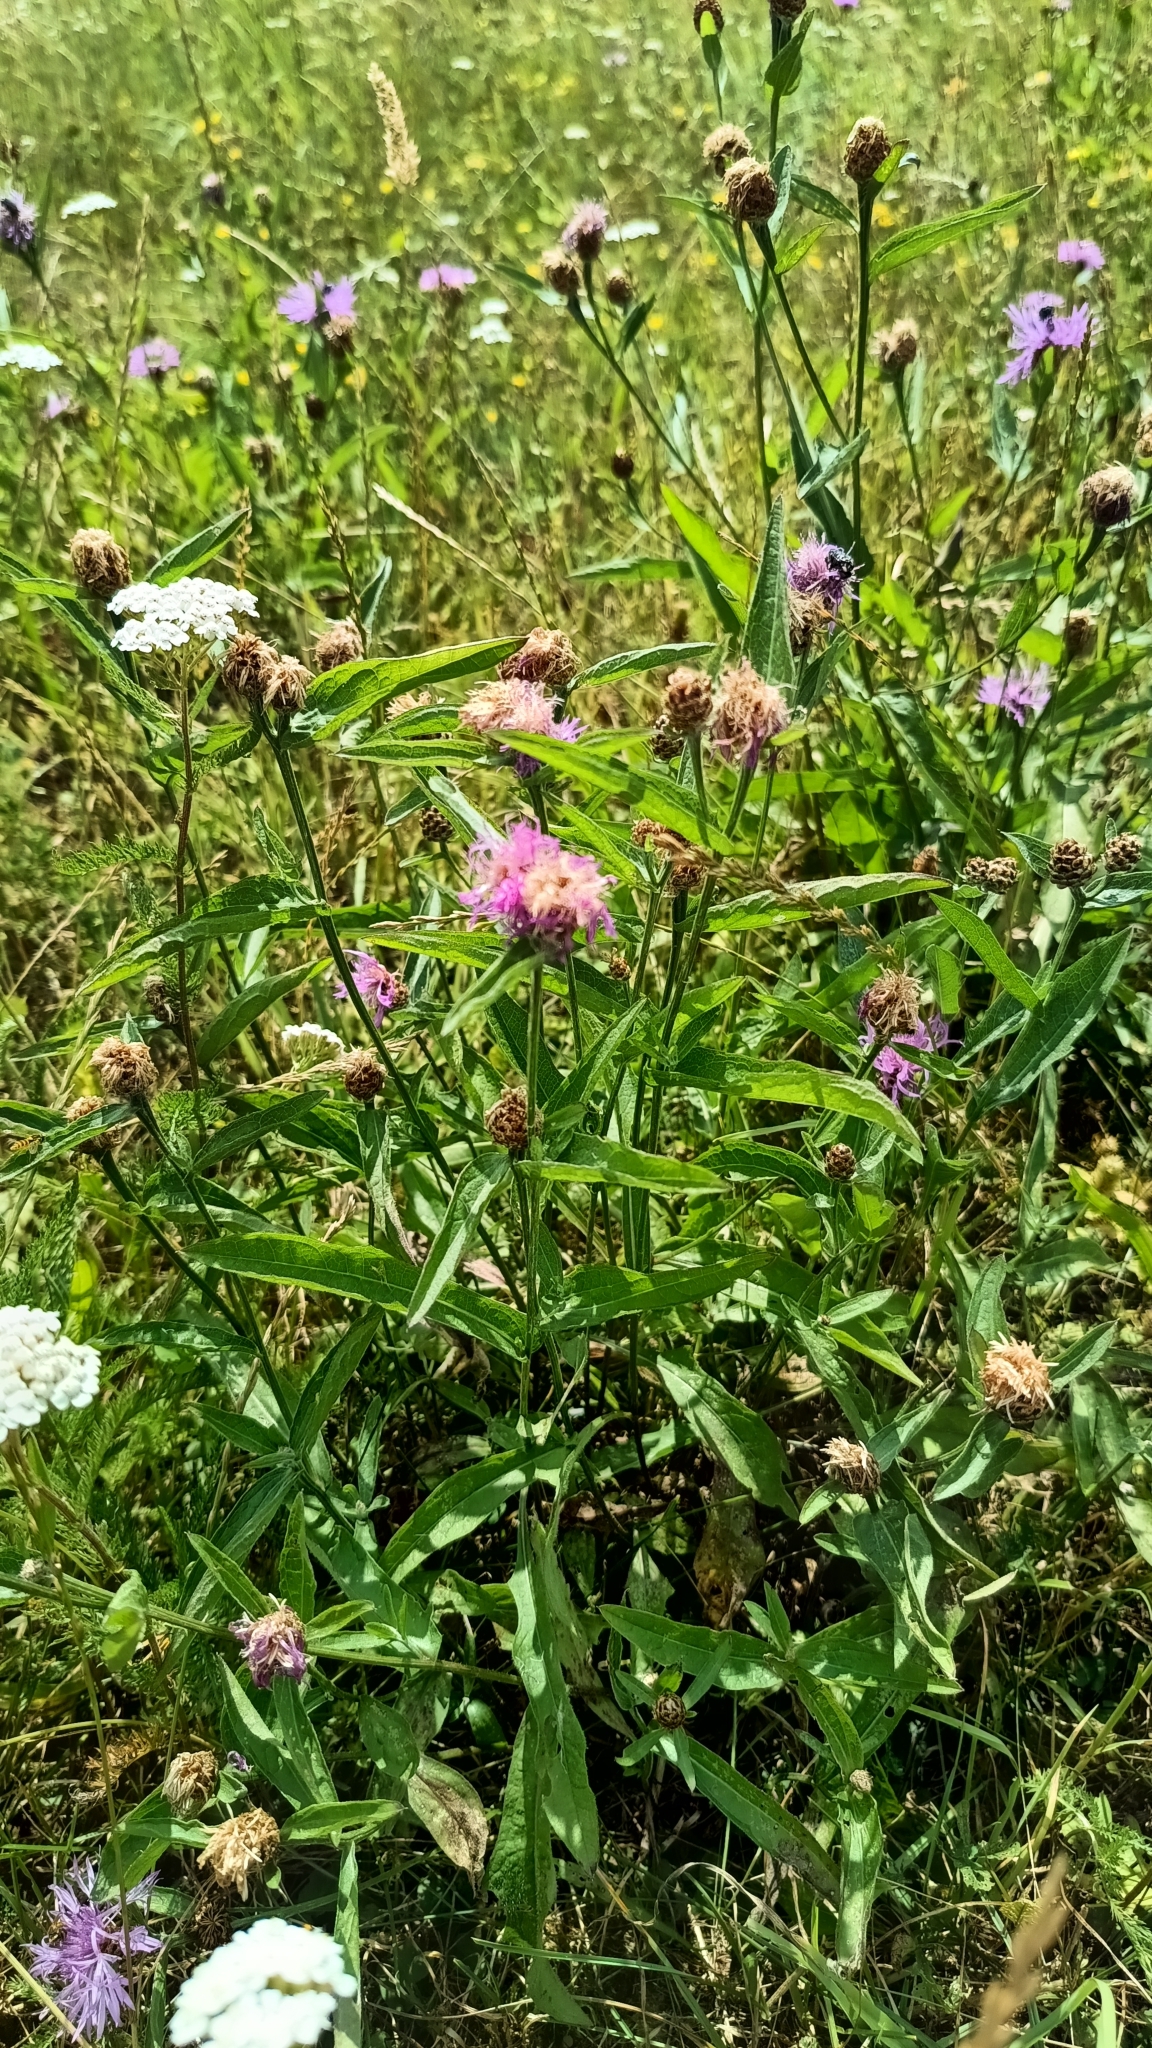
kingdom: Plantae
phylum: Tracheophyta
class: Magnoliopsida
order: Asterales
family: Asteraceae
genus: Centaurea
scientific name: Centaurea jacea
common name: Brown knapweed
